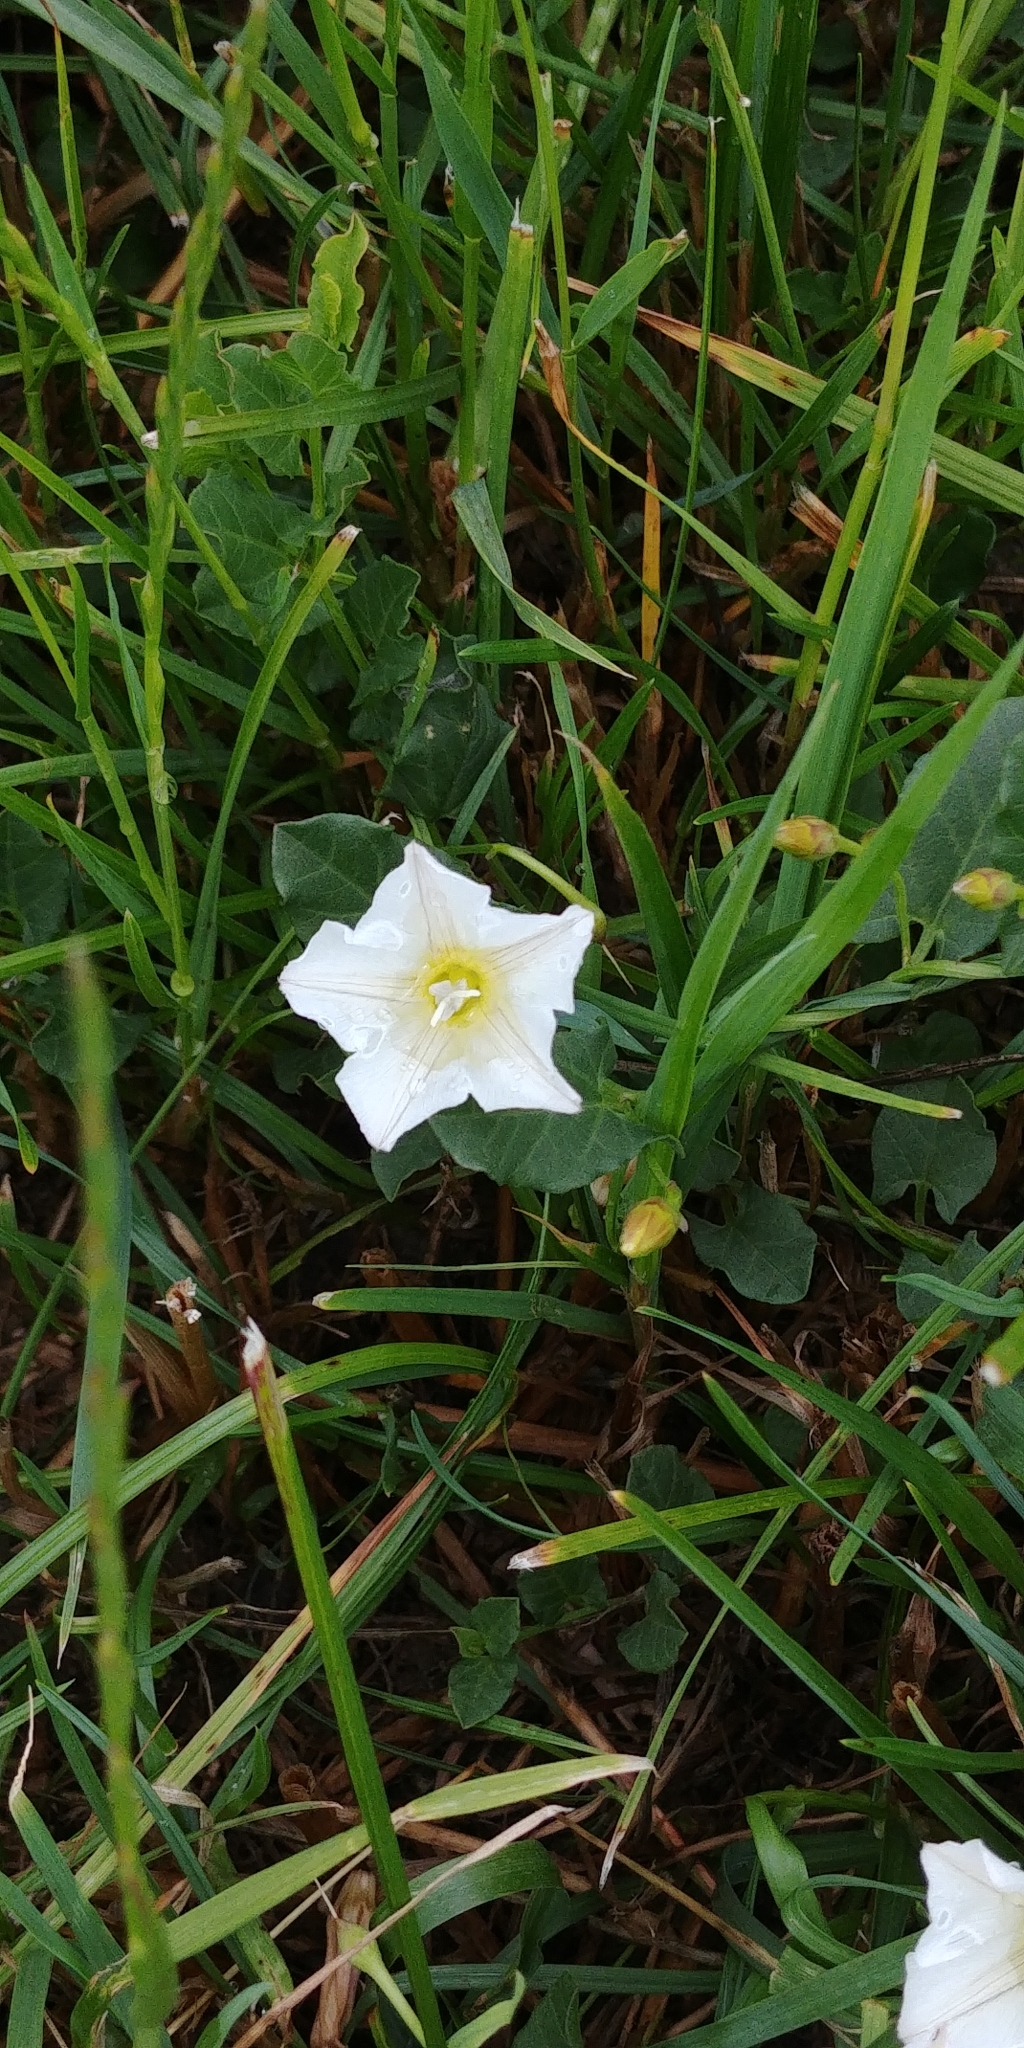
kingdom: Plantae
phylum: Tracheophyta
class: Magnoliopsida
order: Solanales
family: Convolvulaceae
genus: Convolvulus
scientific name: Convolvulus arvensis
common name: Field bindweed
